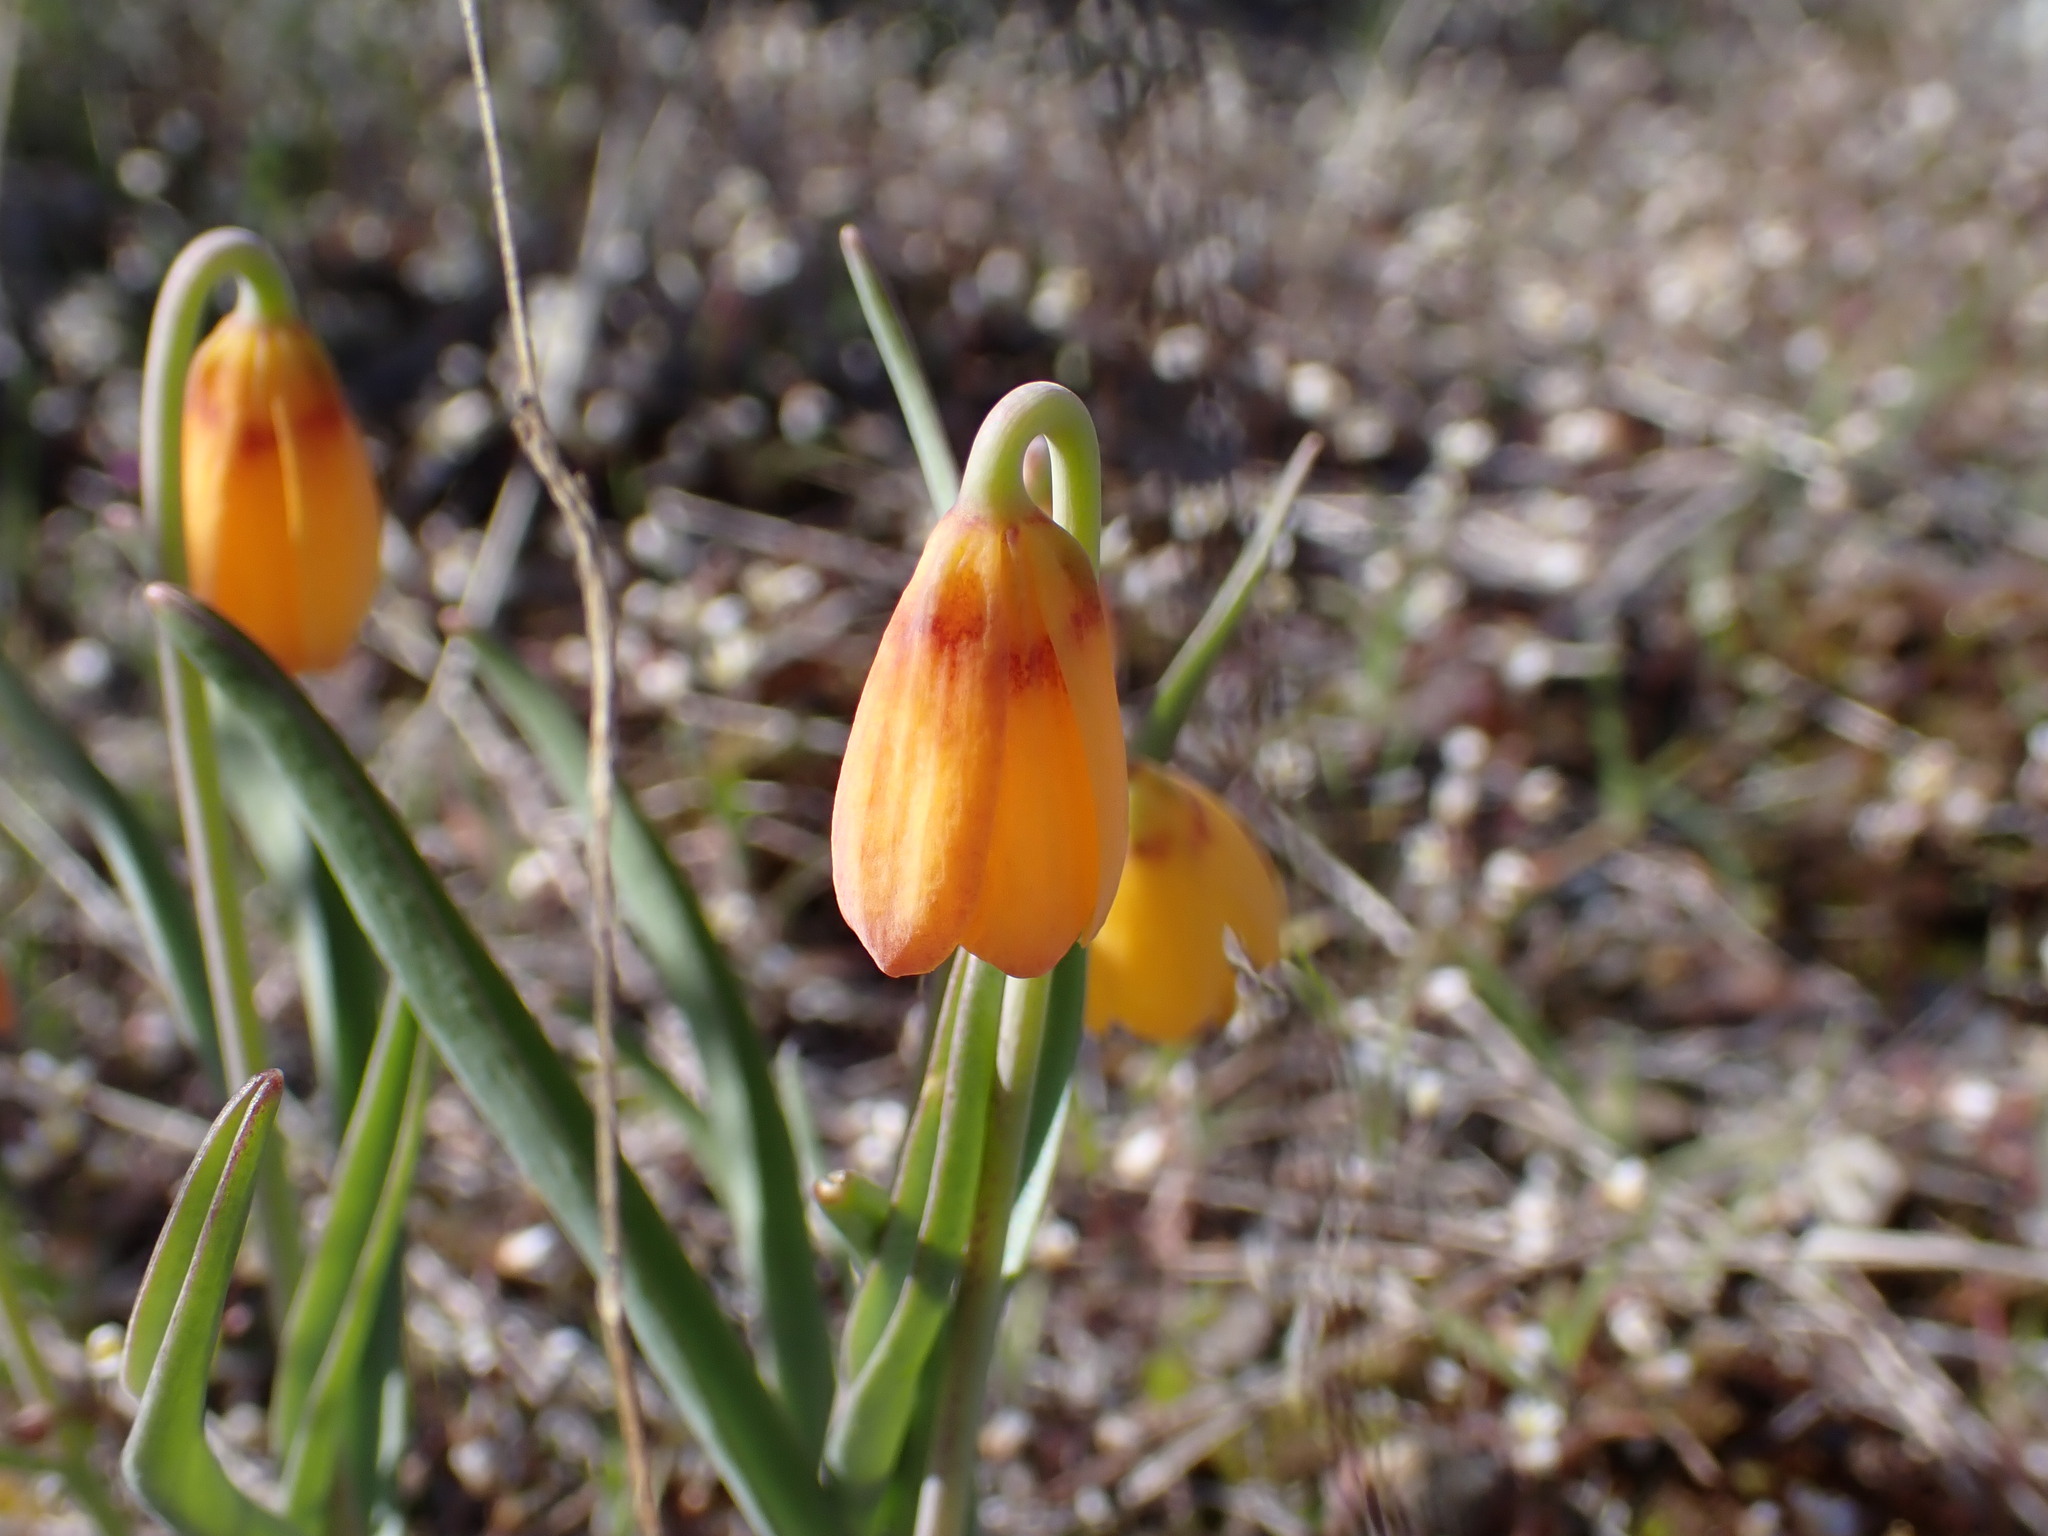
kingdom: Plantae
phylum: Tracheophyta
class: Liliopsida
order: Liliales
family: Liliaceae
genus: Fritillaria
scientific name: Fritillaria pudica
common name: Yellow fritillary
